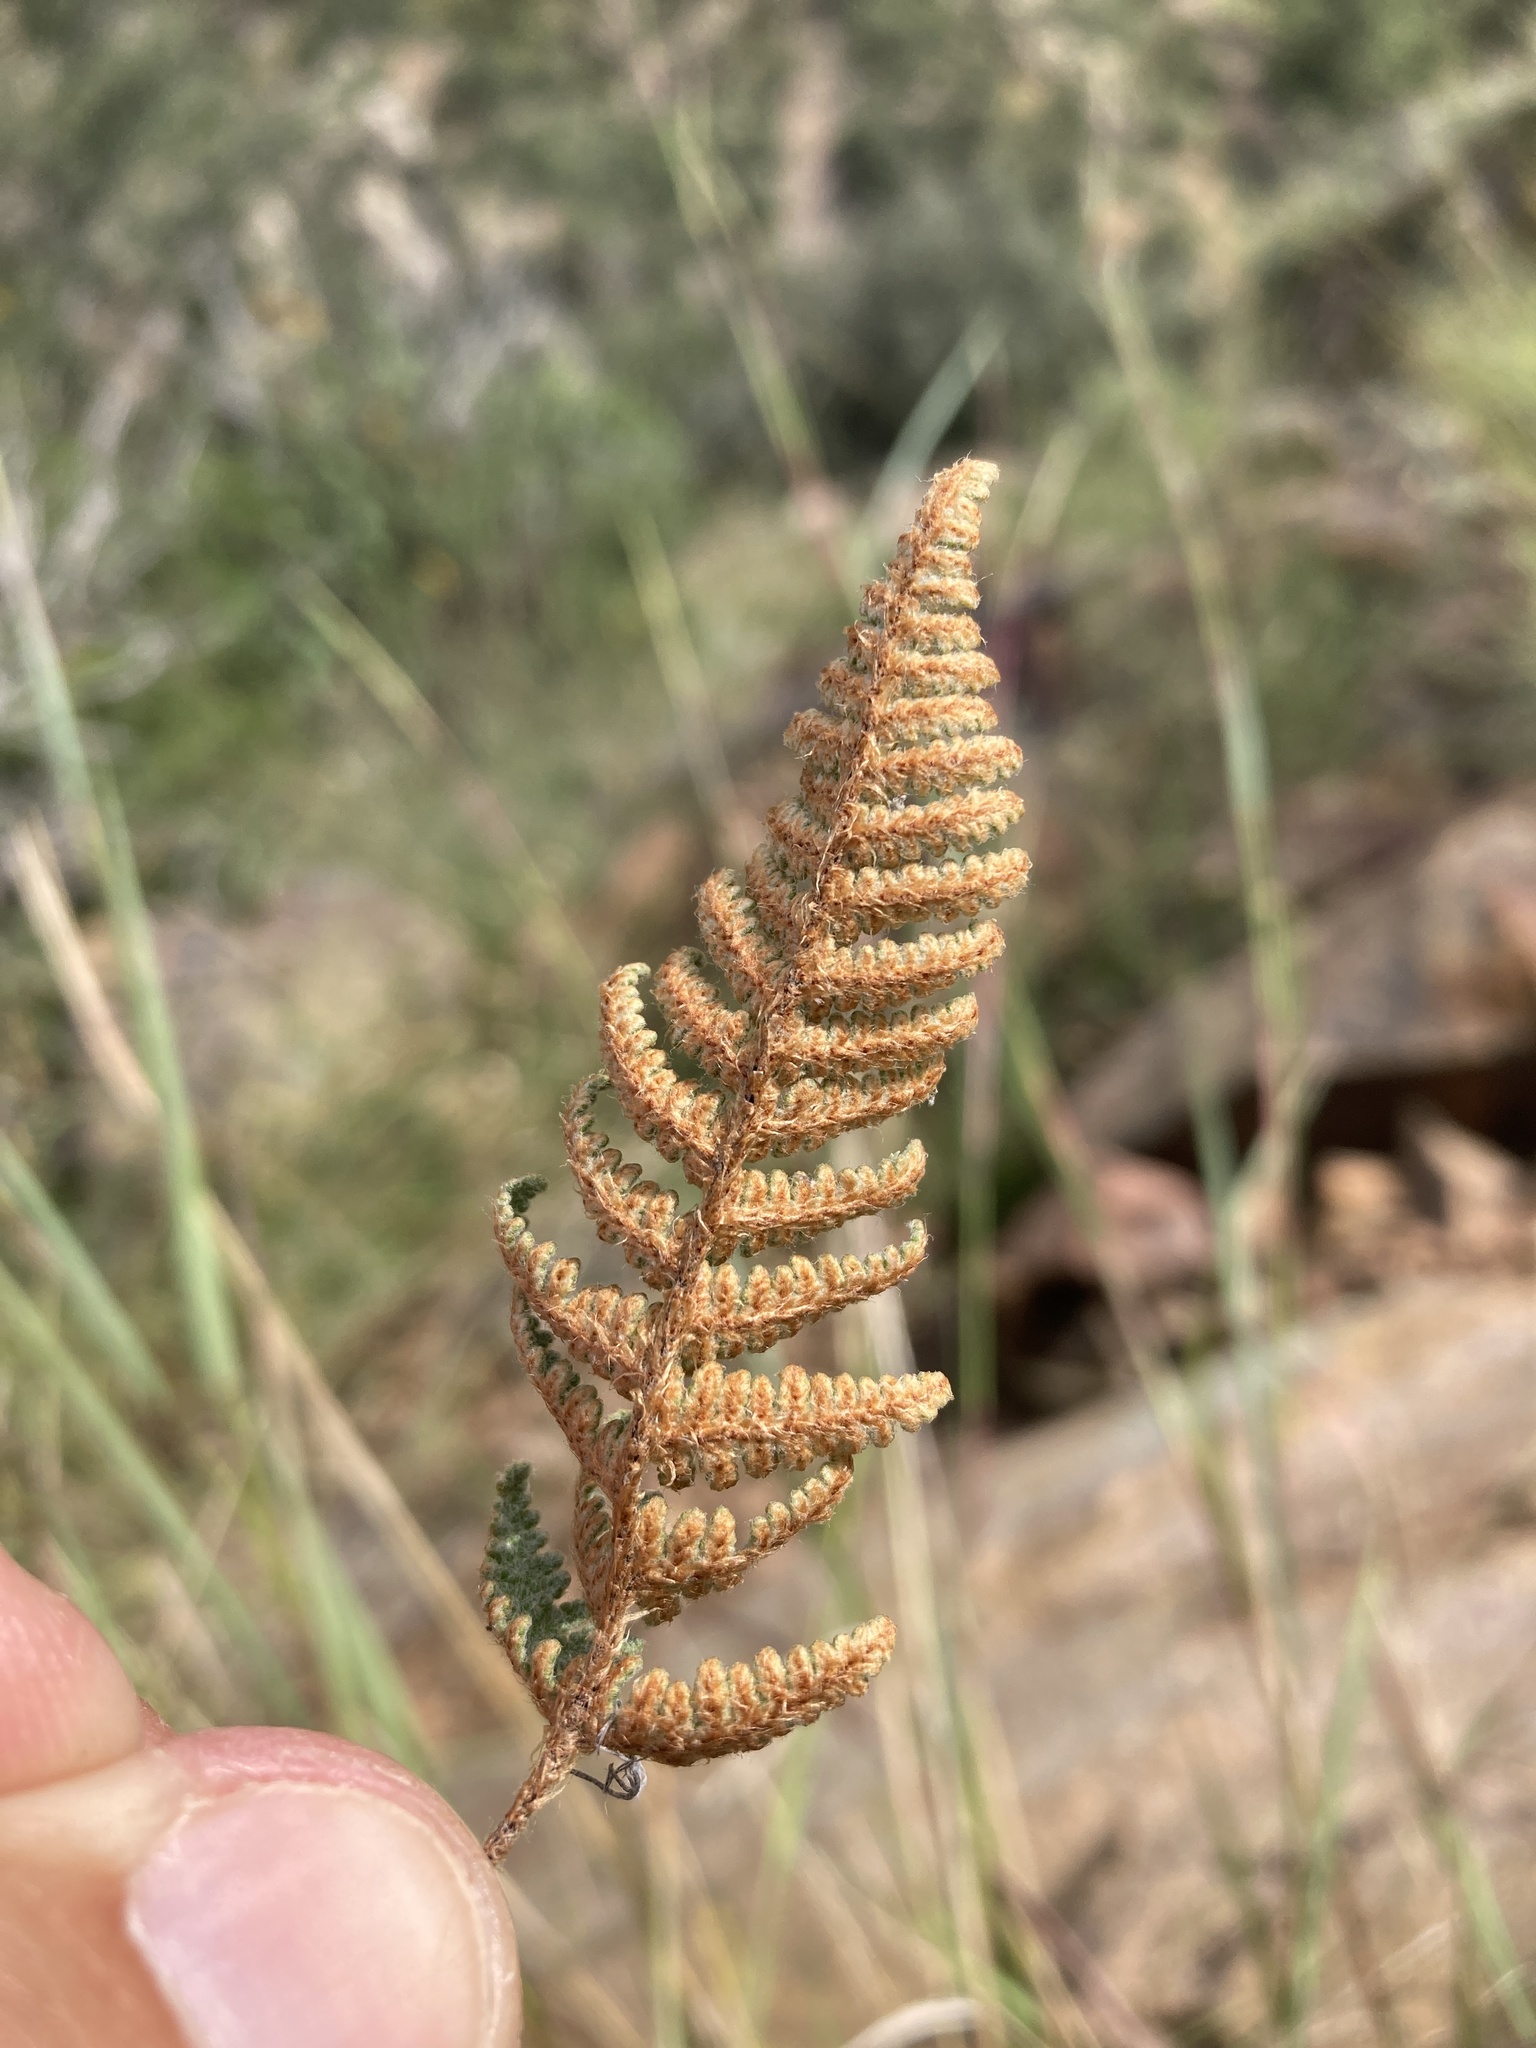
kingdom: Plantae
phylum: Tracheophyta
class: Polypodiopsida
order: Polypodiales
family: Pteridaceae
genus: Myriopteris
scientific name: Myriopteris lindheimeri
